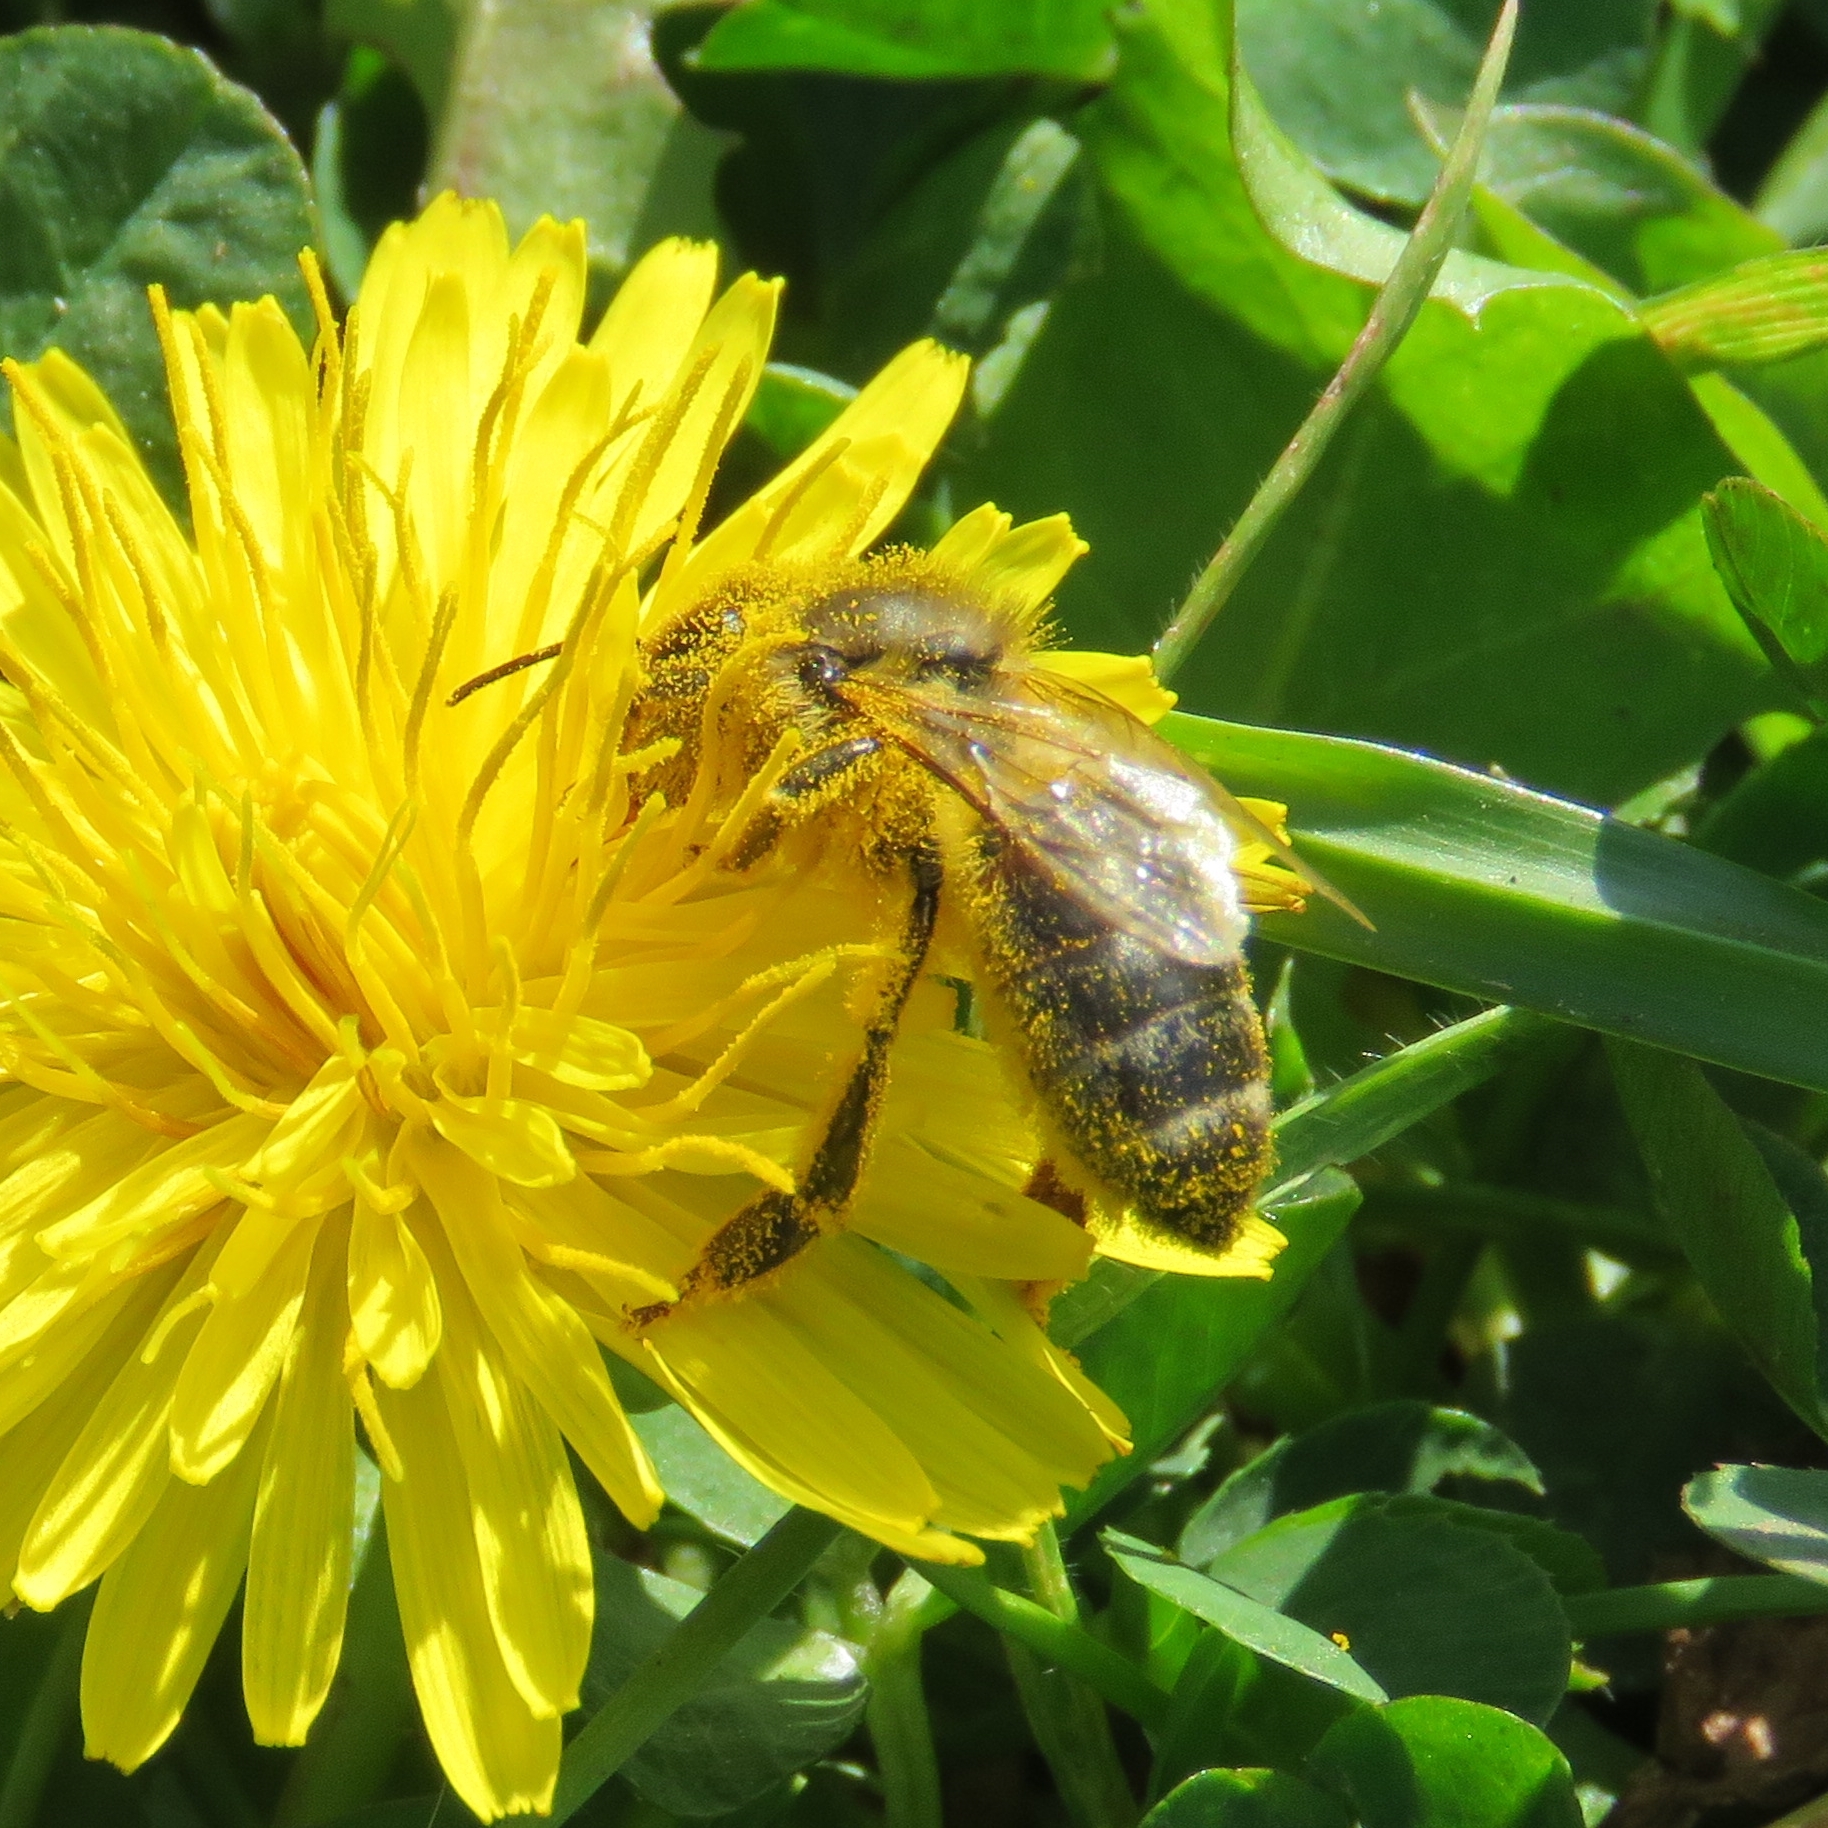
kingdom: Animalia
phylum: Arthropoda
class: Insecta
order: Hymenoptera
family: Apidae
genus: Apis
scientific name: Apis mellifera
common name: Honey bee
